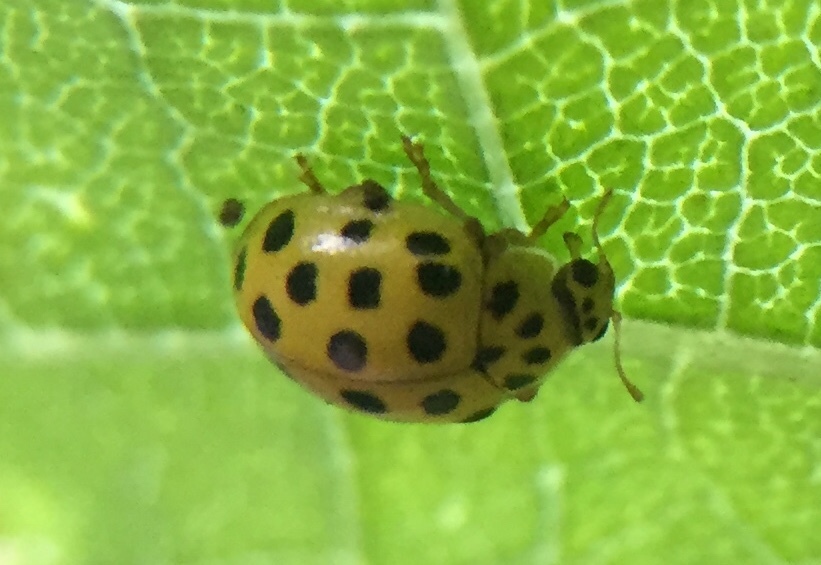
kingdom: Animalia
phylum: Arthropoda
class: Insecta
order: Coleoptera
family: Coccinellidae
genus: Psyllobora
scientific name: Psyllobora vigintiduopunctata
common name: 22-spot ladybird
